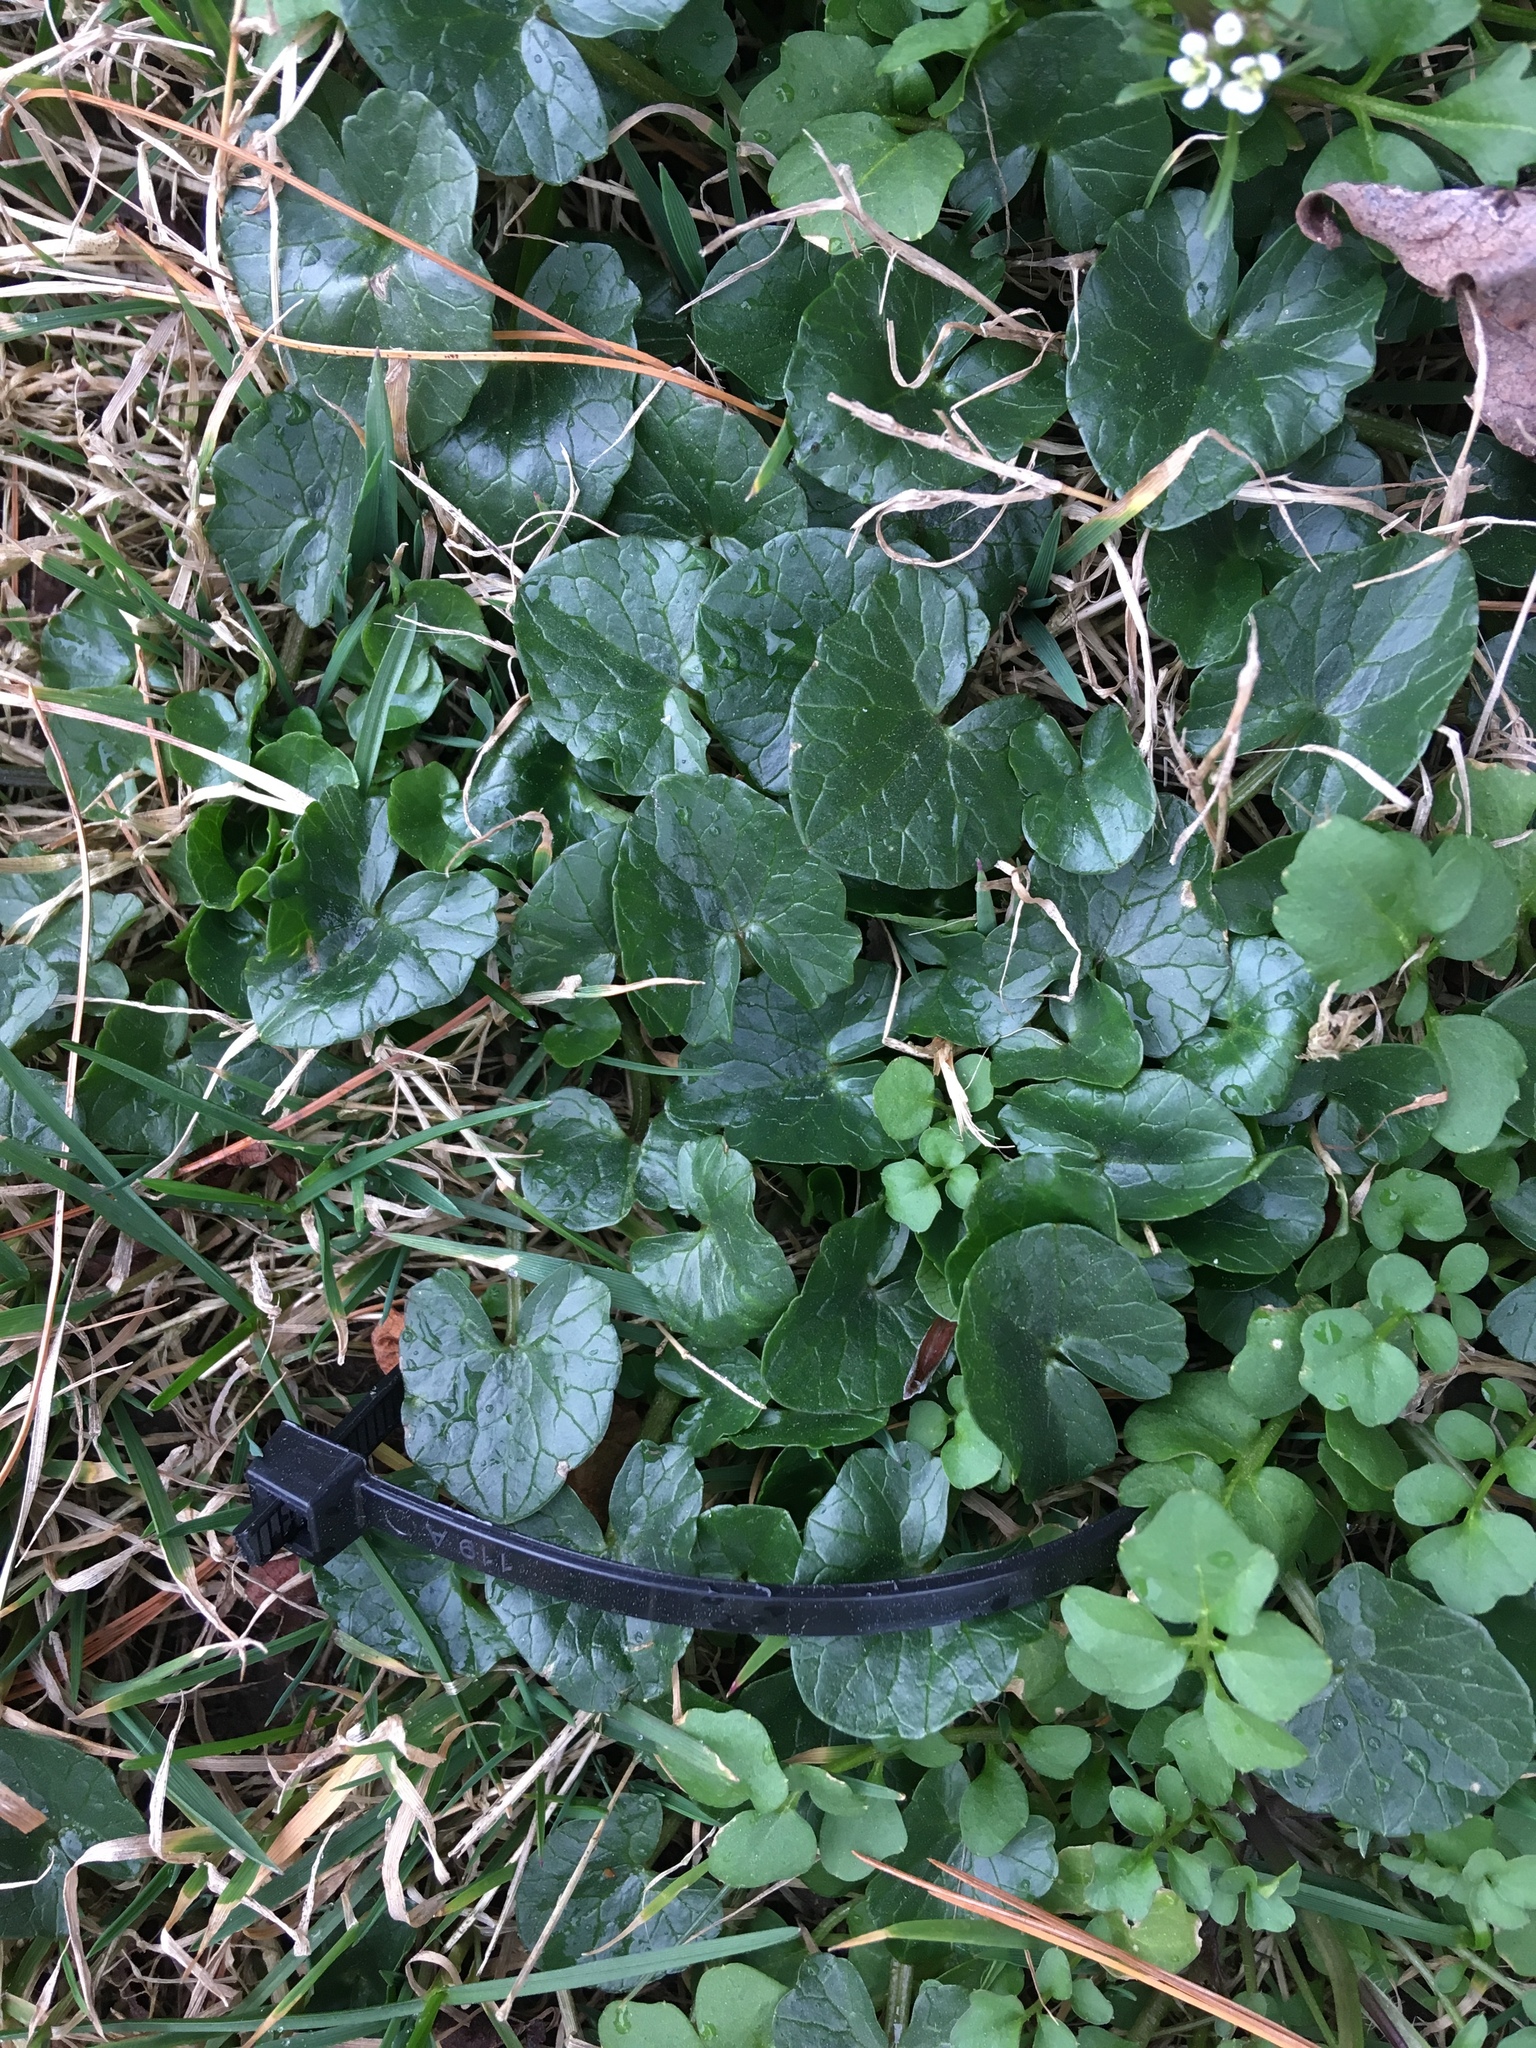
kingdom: Plantae
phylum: Tracheophyta
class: Magnoliopsida
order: Ranunculales
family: Ranunculaceae
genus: Ficaria
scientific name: Ficaria verna
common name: Lesser celandine
